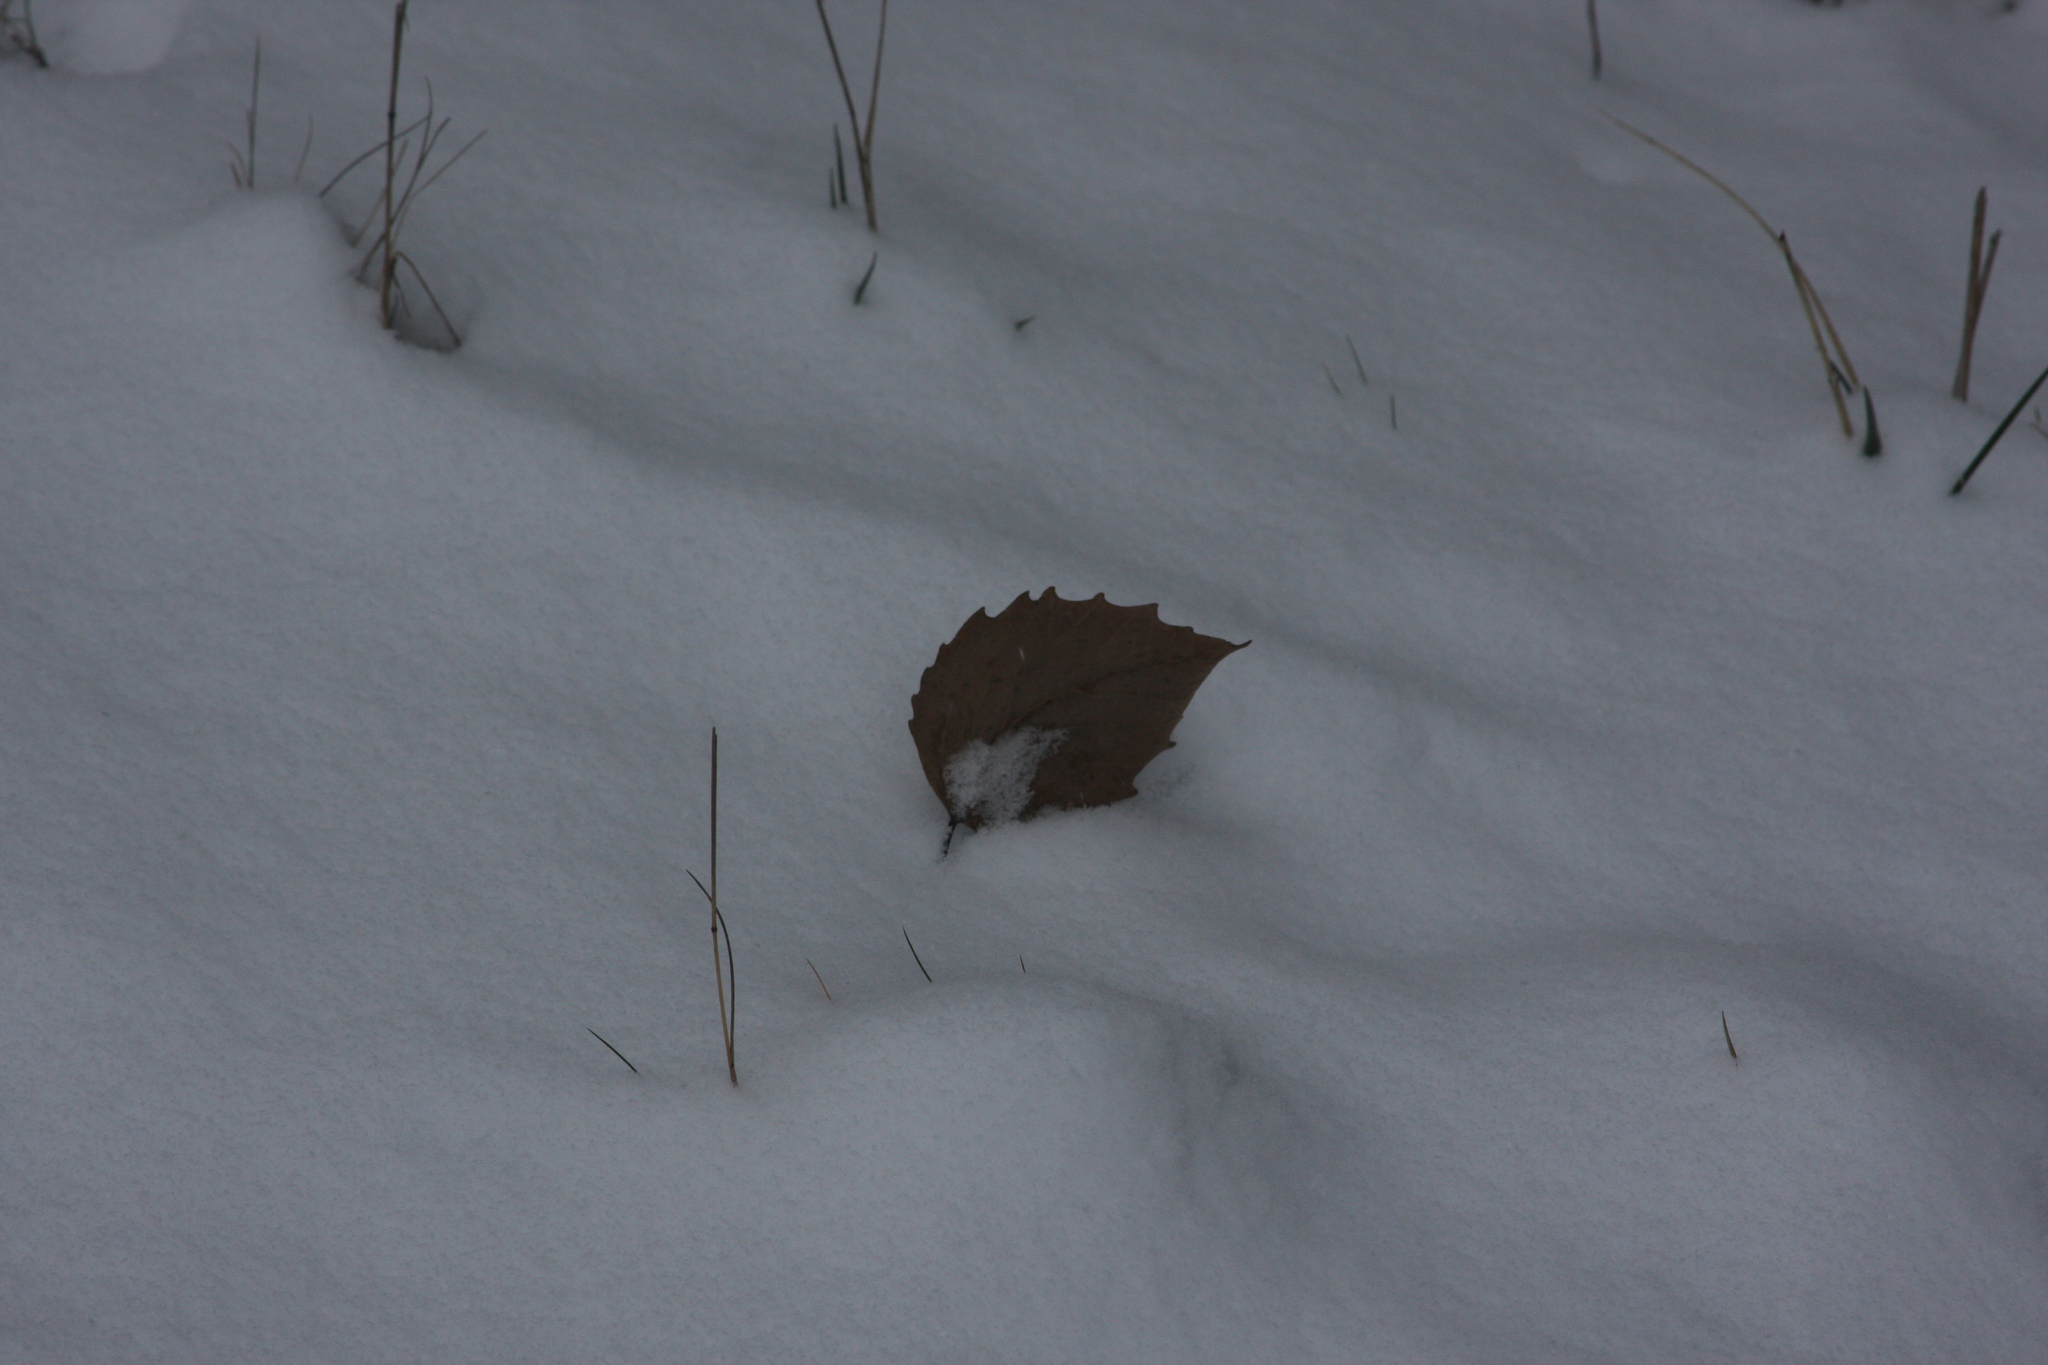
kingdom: Plantae
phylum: Tracheophyta
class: Magnoliopsida
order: Malpighiales
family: Salicaceae
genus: Populus
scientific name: Populus grandidentata
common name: Bigtooth aspen
